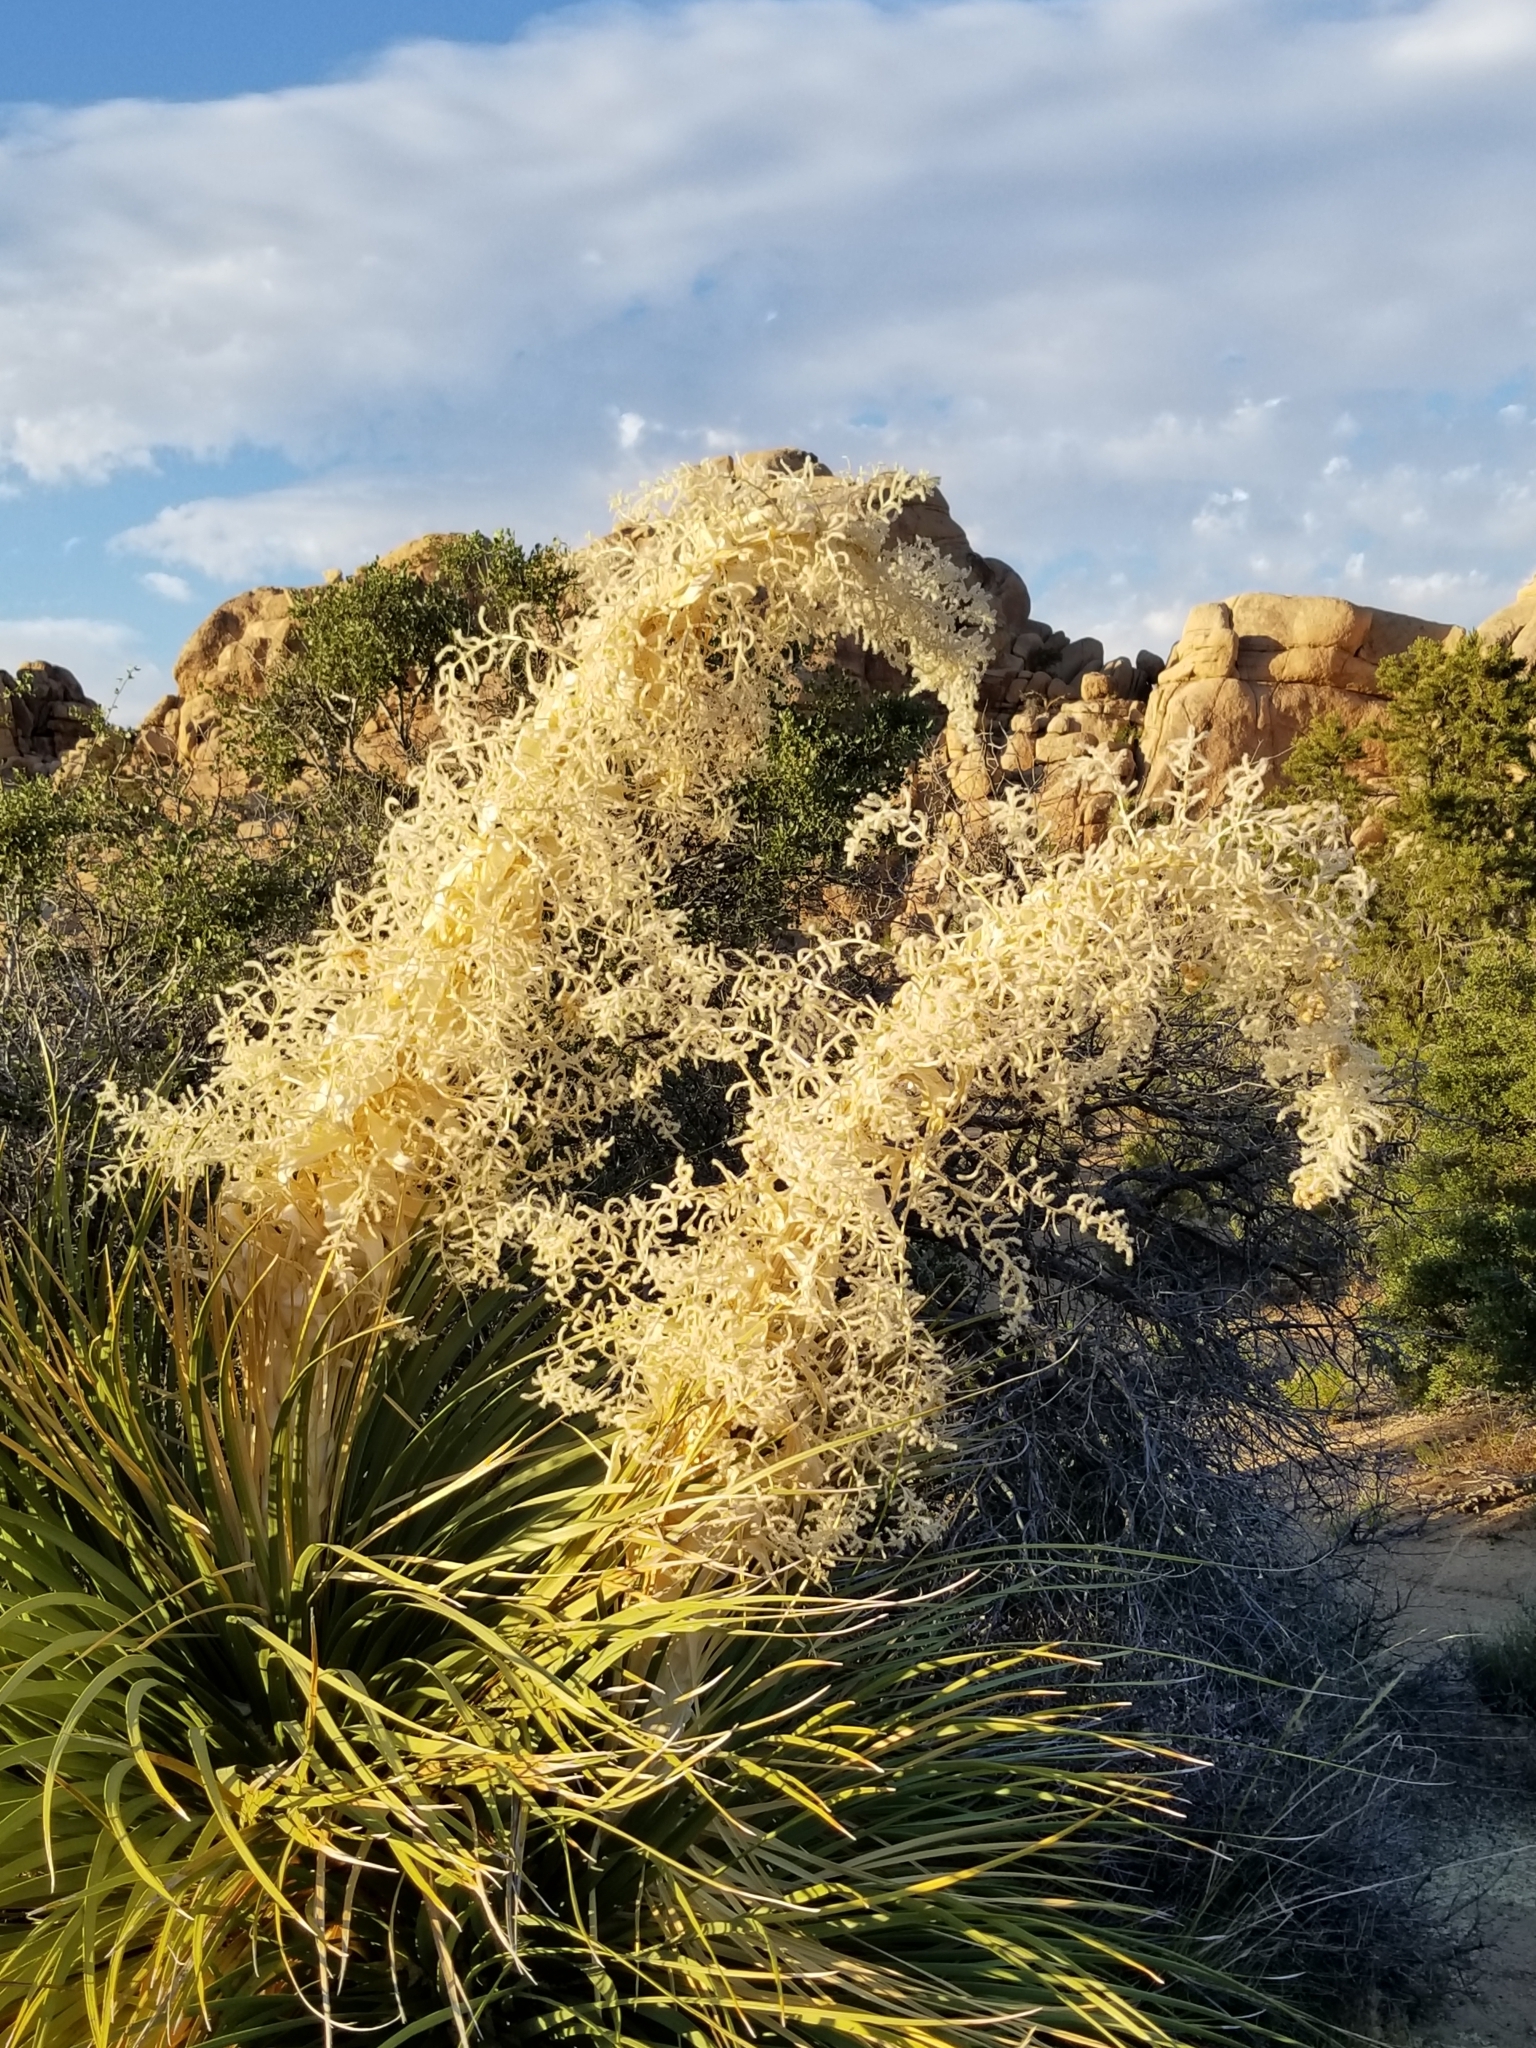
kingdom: Plantae
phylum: Tracheophyta
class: Liliopsida
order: Asparagales
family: Asparagaceae
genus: Nolina
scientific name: Nolina parryi
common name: Parry nolina
